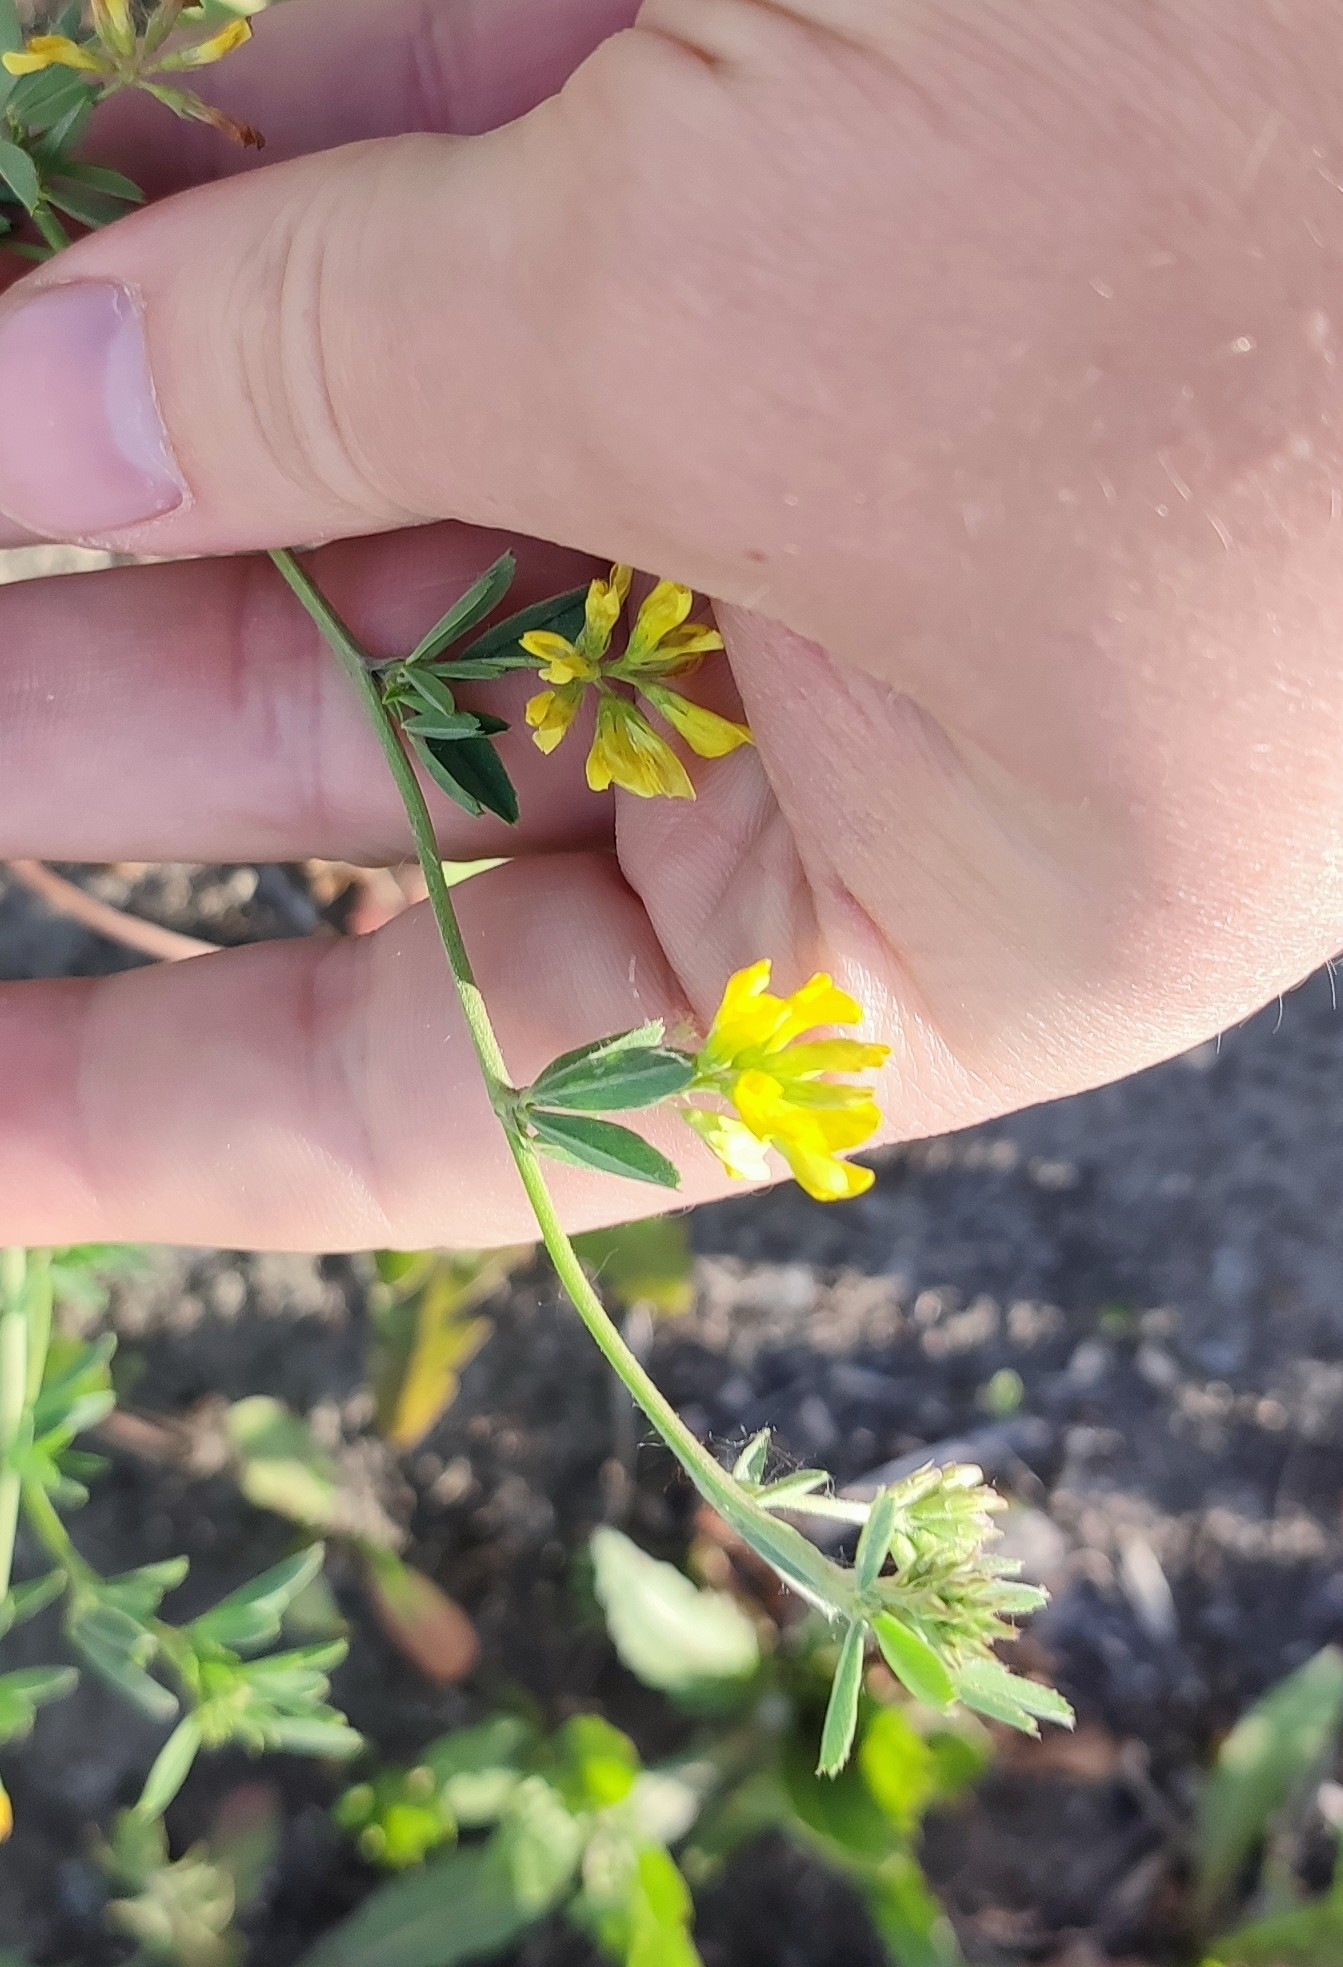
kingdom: Plantae
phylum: Tracheophyta
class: Magnoliopsida
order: Fabales
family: Fabaceae
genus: Medicago
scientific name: Medicago falcata
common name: Sickle medick
